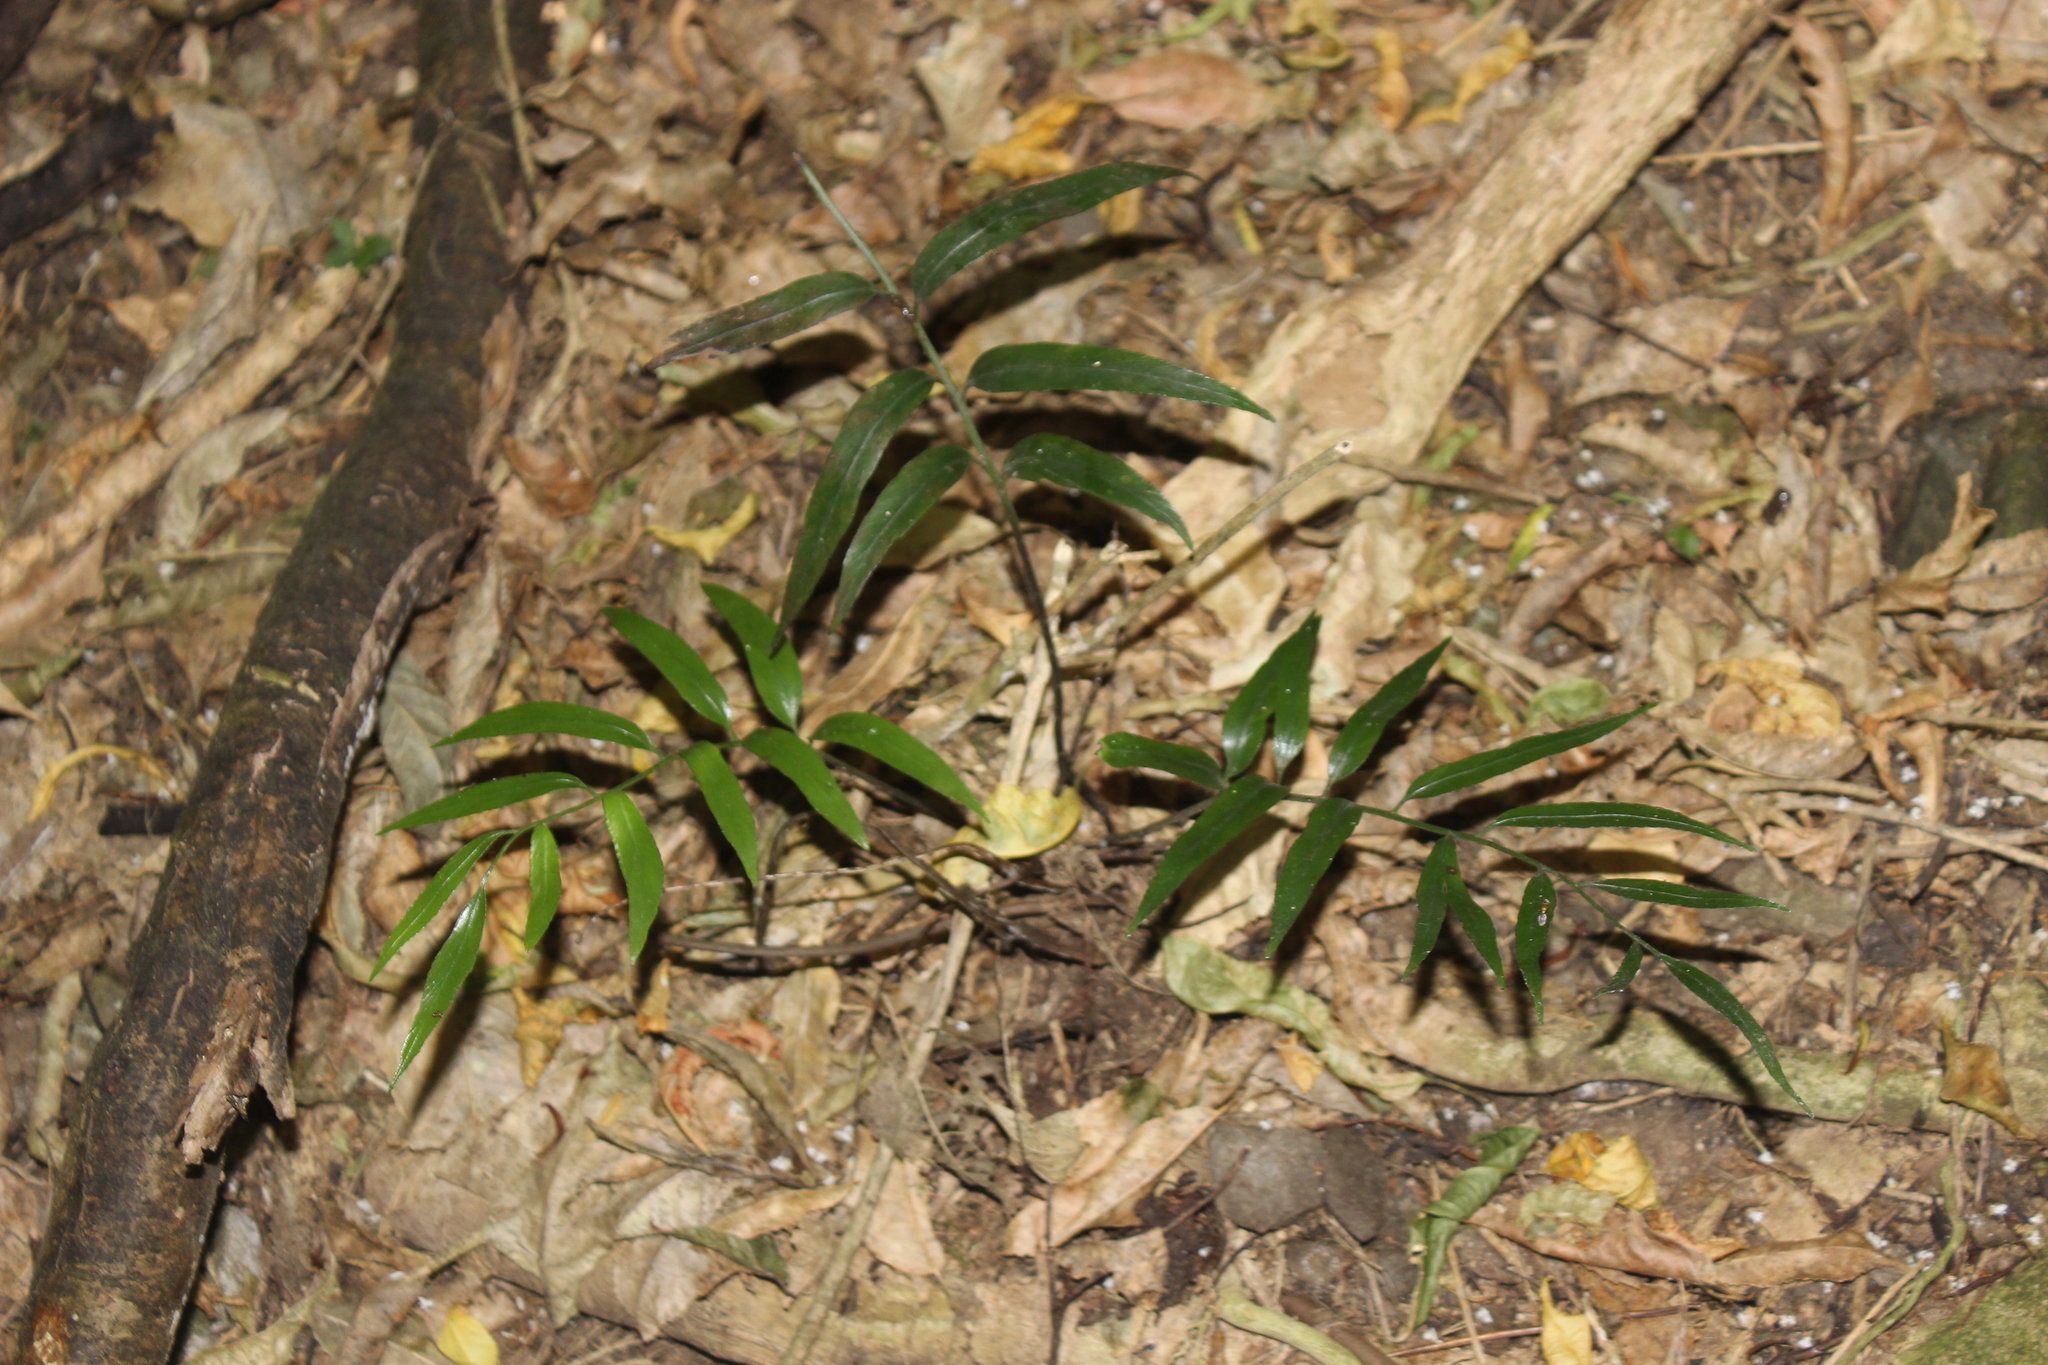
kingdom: Plantae
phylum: Tracheophyta
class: Polypodiopsida
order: Polypodiales
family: Aspleniaceae
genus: Asplenium
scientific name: Asplenium oblongifolium
